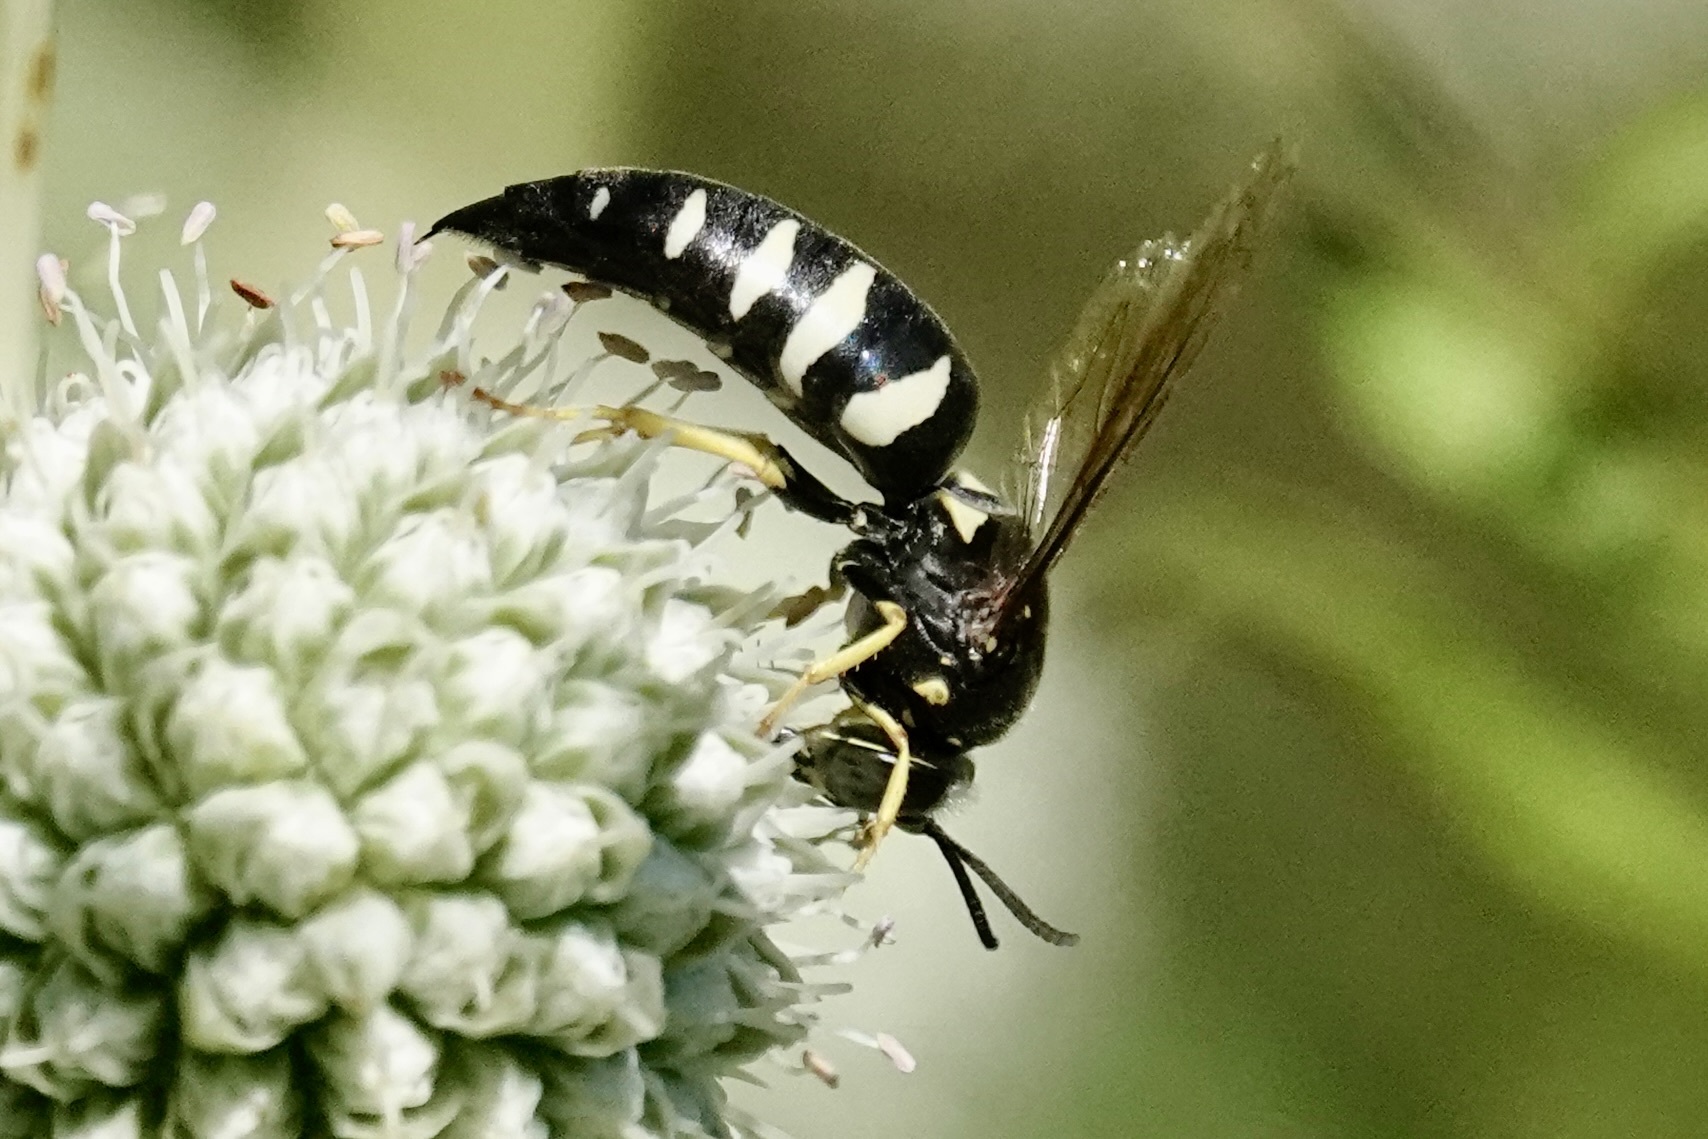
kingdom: Animalia
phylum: Arthropoda
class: Insecta
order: Hymenoptera
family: Crabronidae
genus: Bicyrtes
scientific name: Bicyrtes quadrifasciatus
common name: Four-banded stink bug hunter wasp
